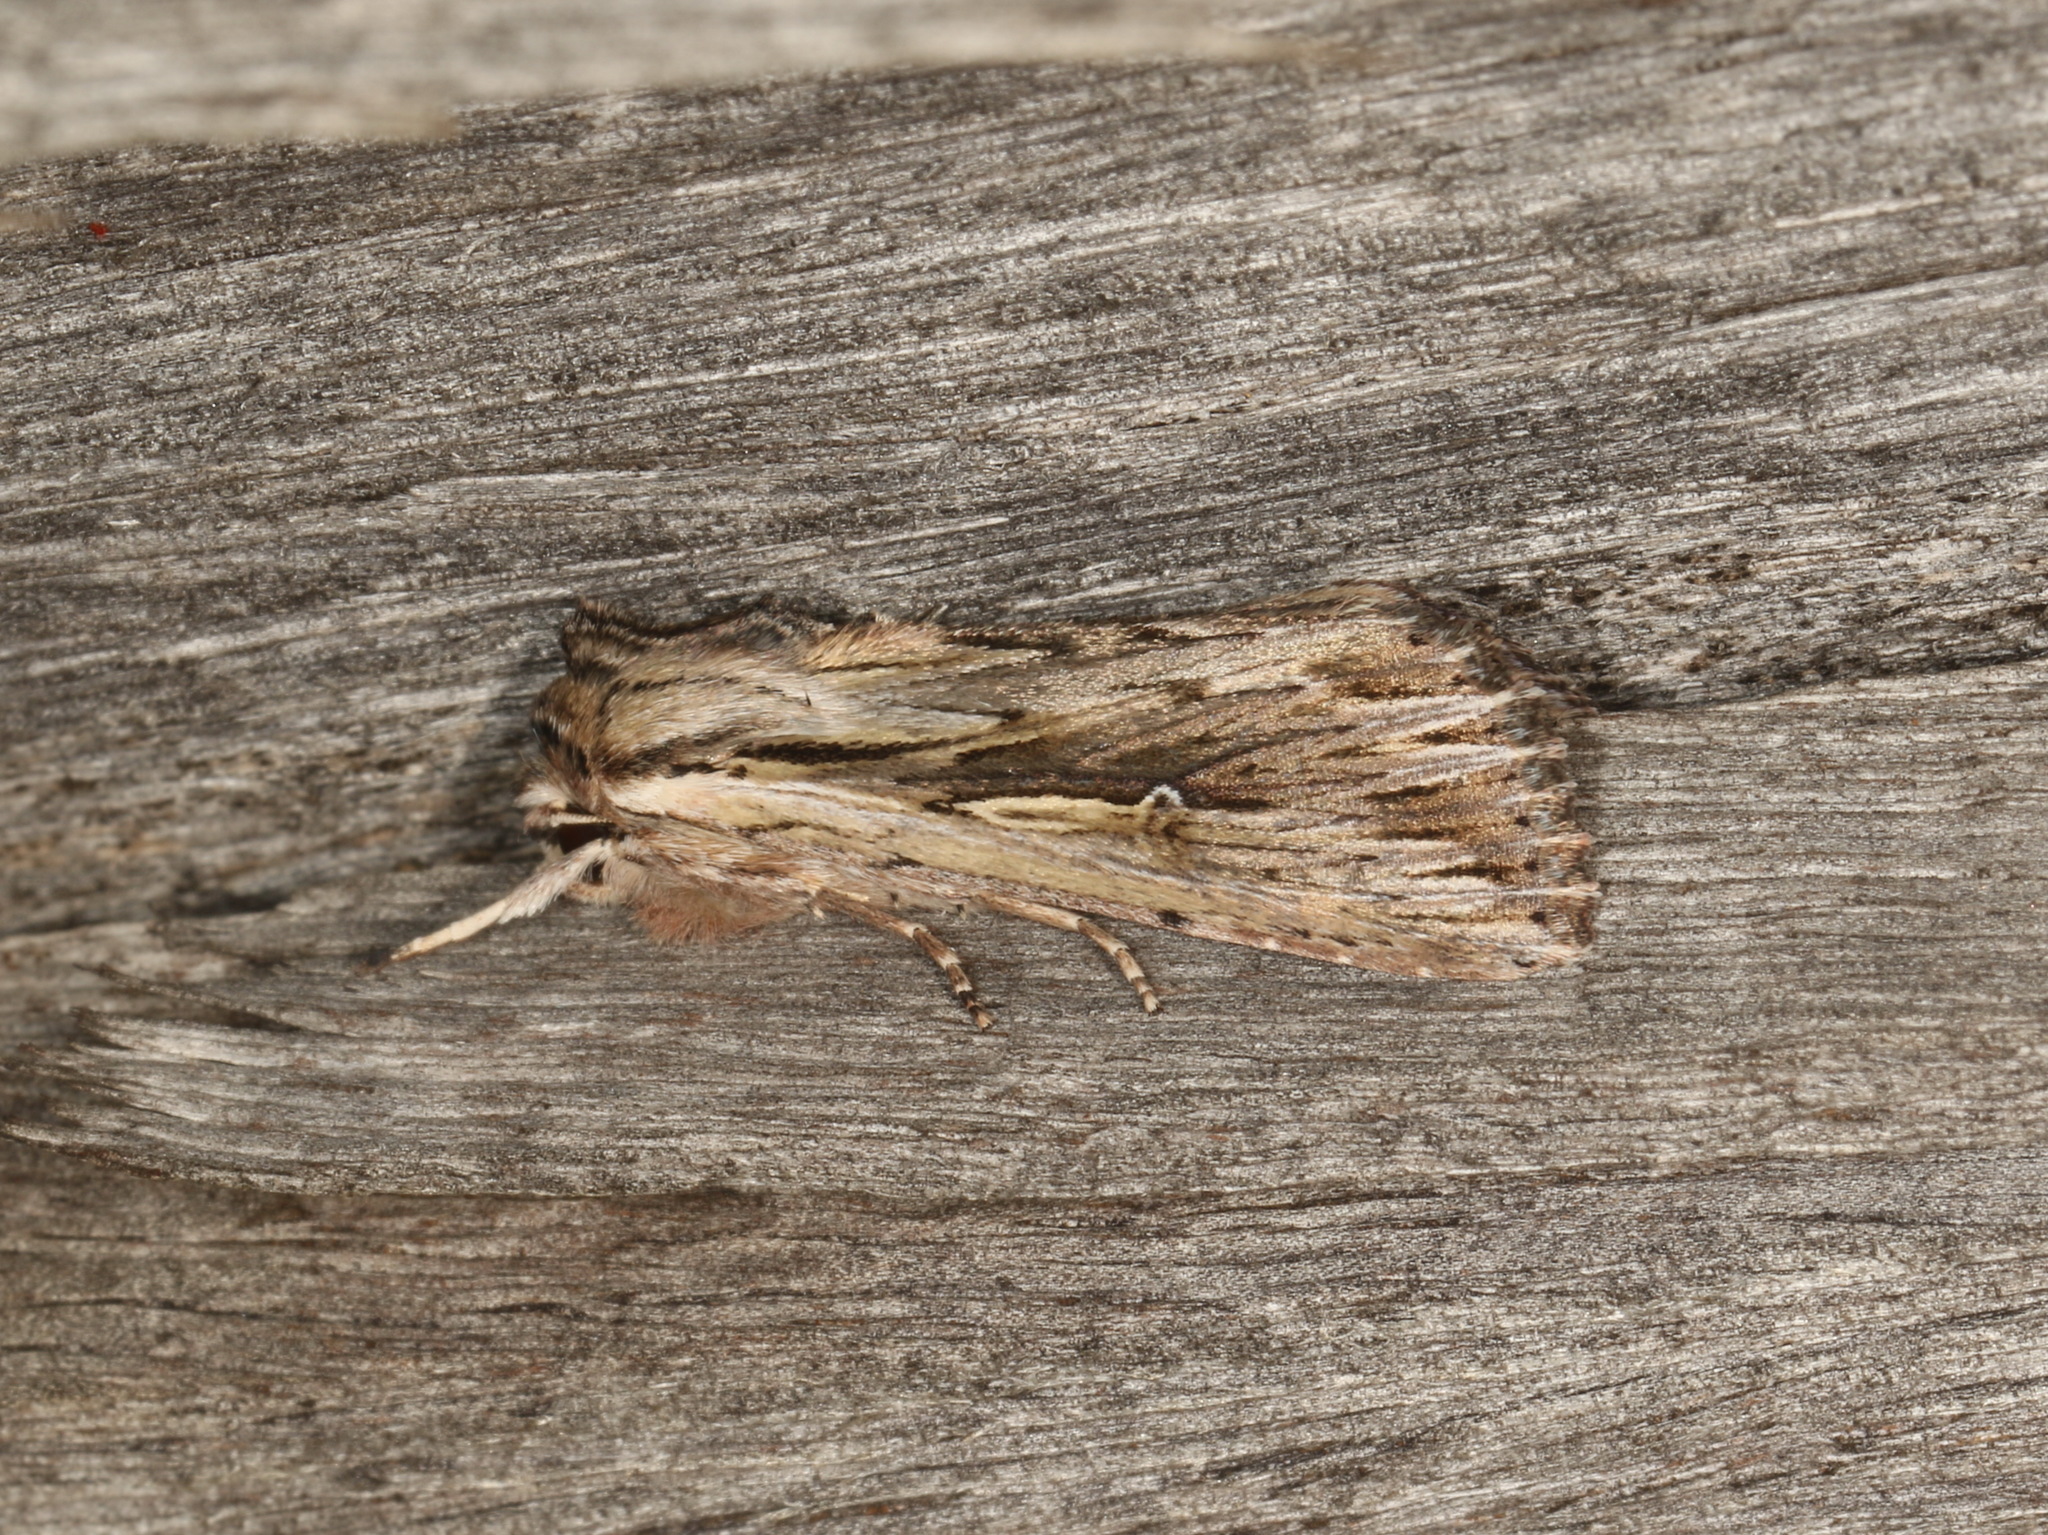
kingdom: Animalia
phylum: Arthropoda
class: Insecta
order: Lepidoptera
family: Noctuidae
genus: Persectania
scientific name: Persectania ewingii
